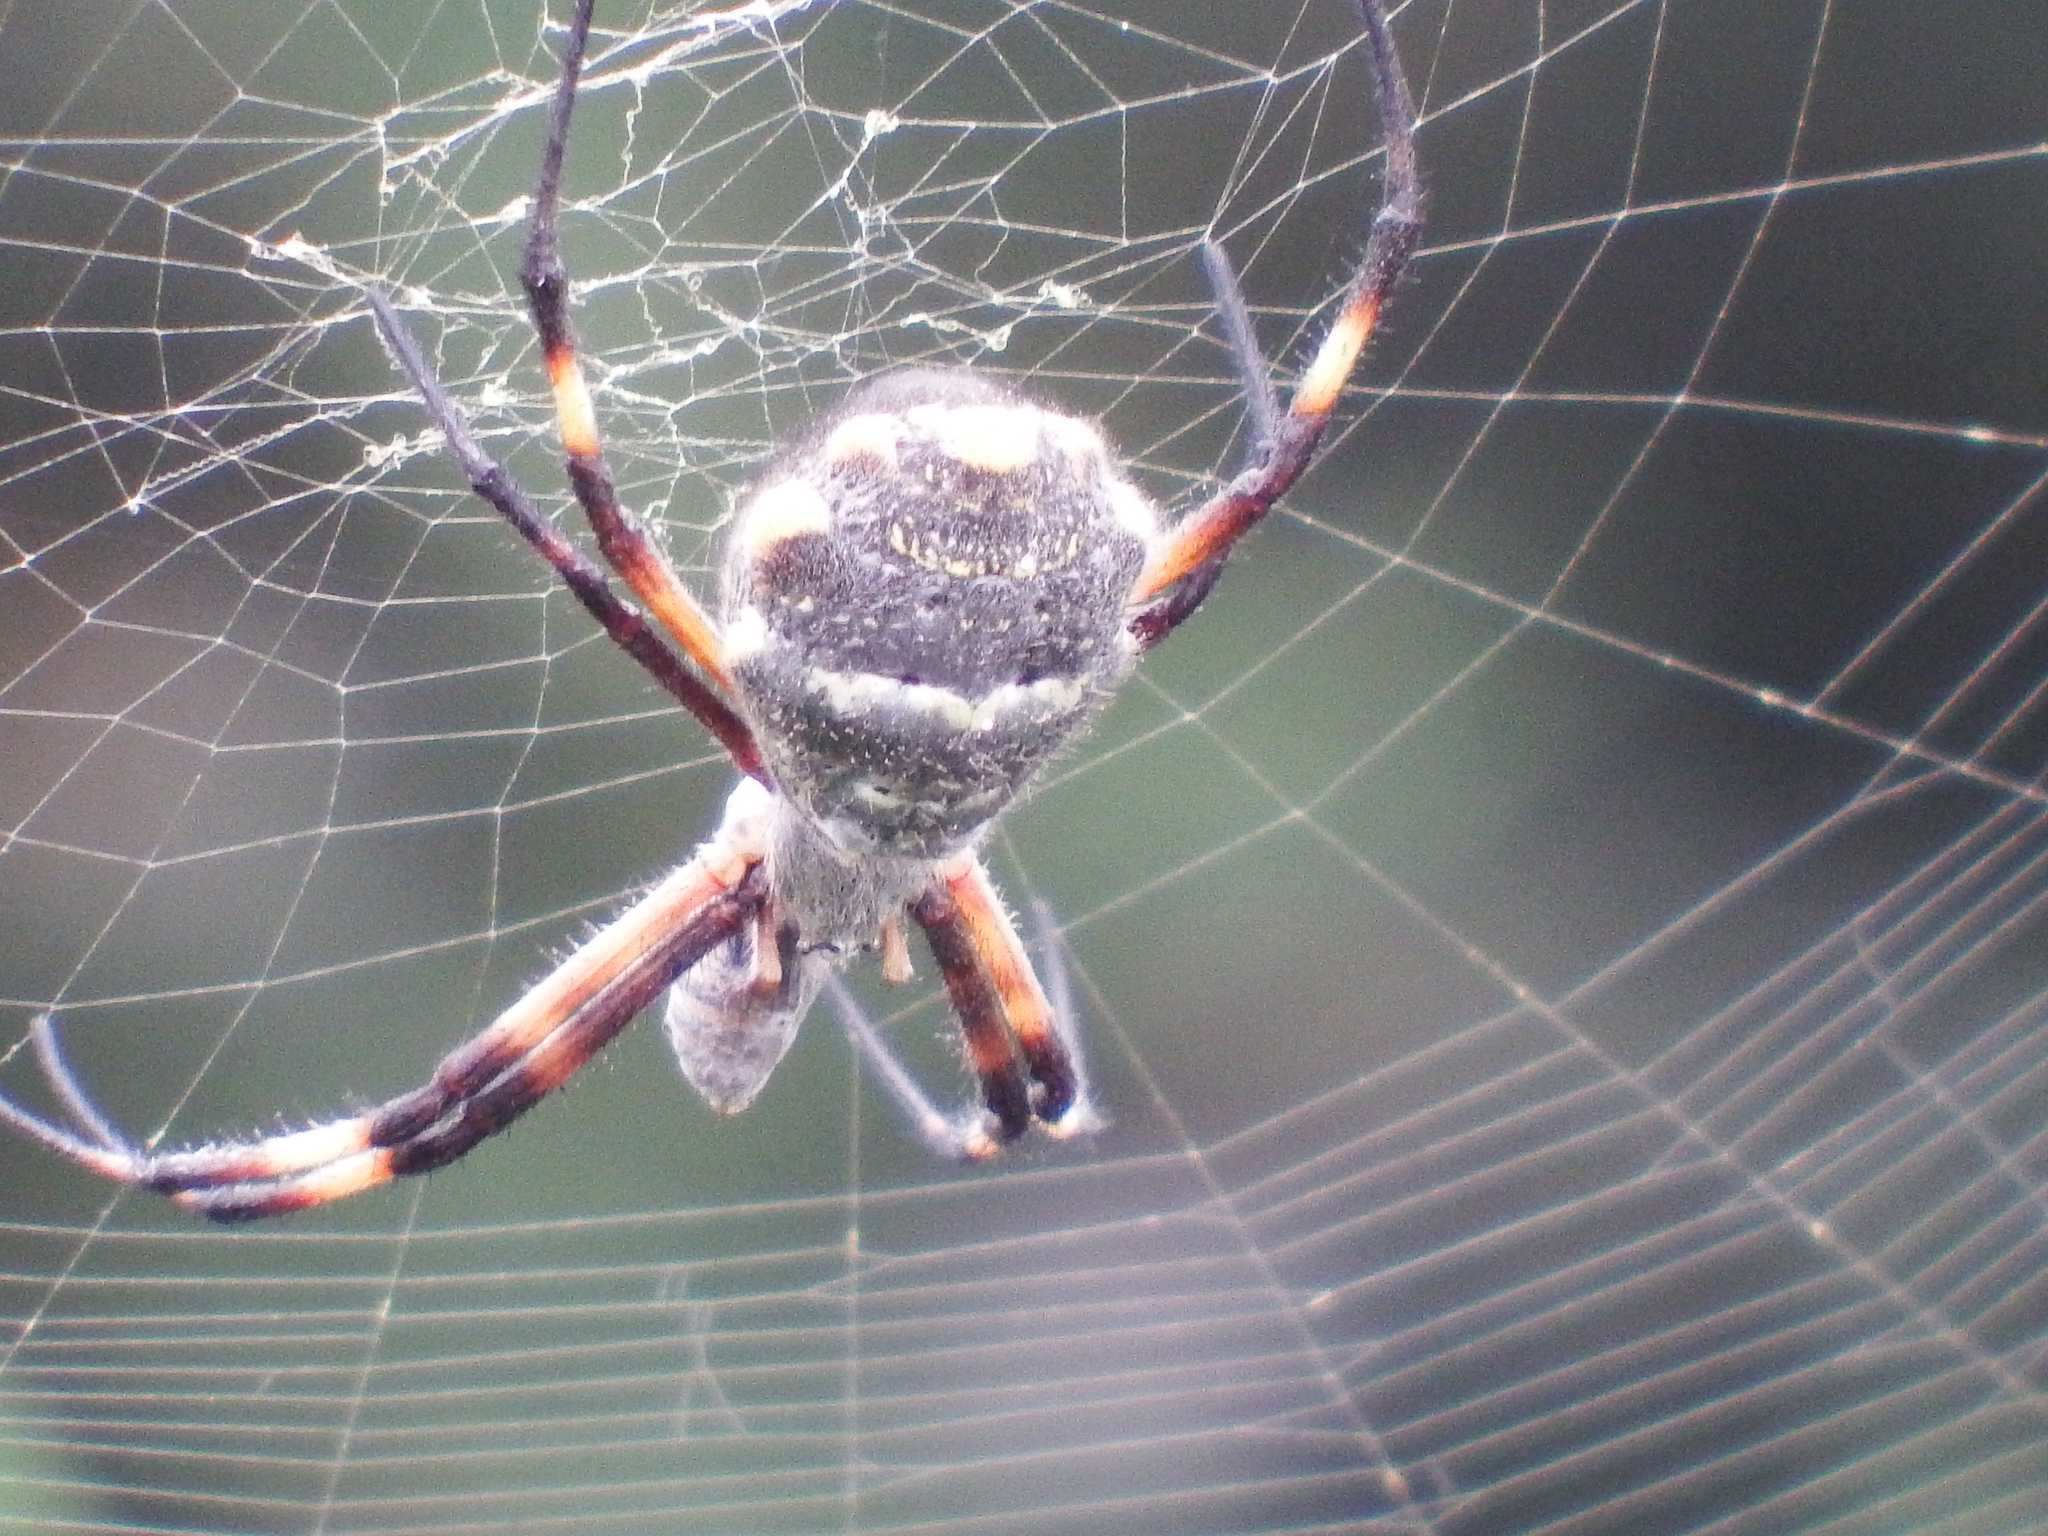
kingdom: Animalia
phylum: Arthropoda
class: Arachnida
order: Araneae
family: Araneidae
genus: Argiope
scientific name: Argiope argentata
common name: Orb weavers
